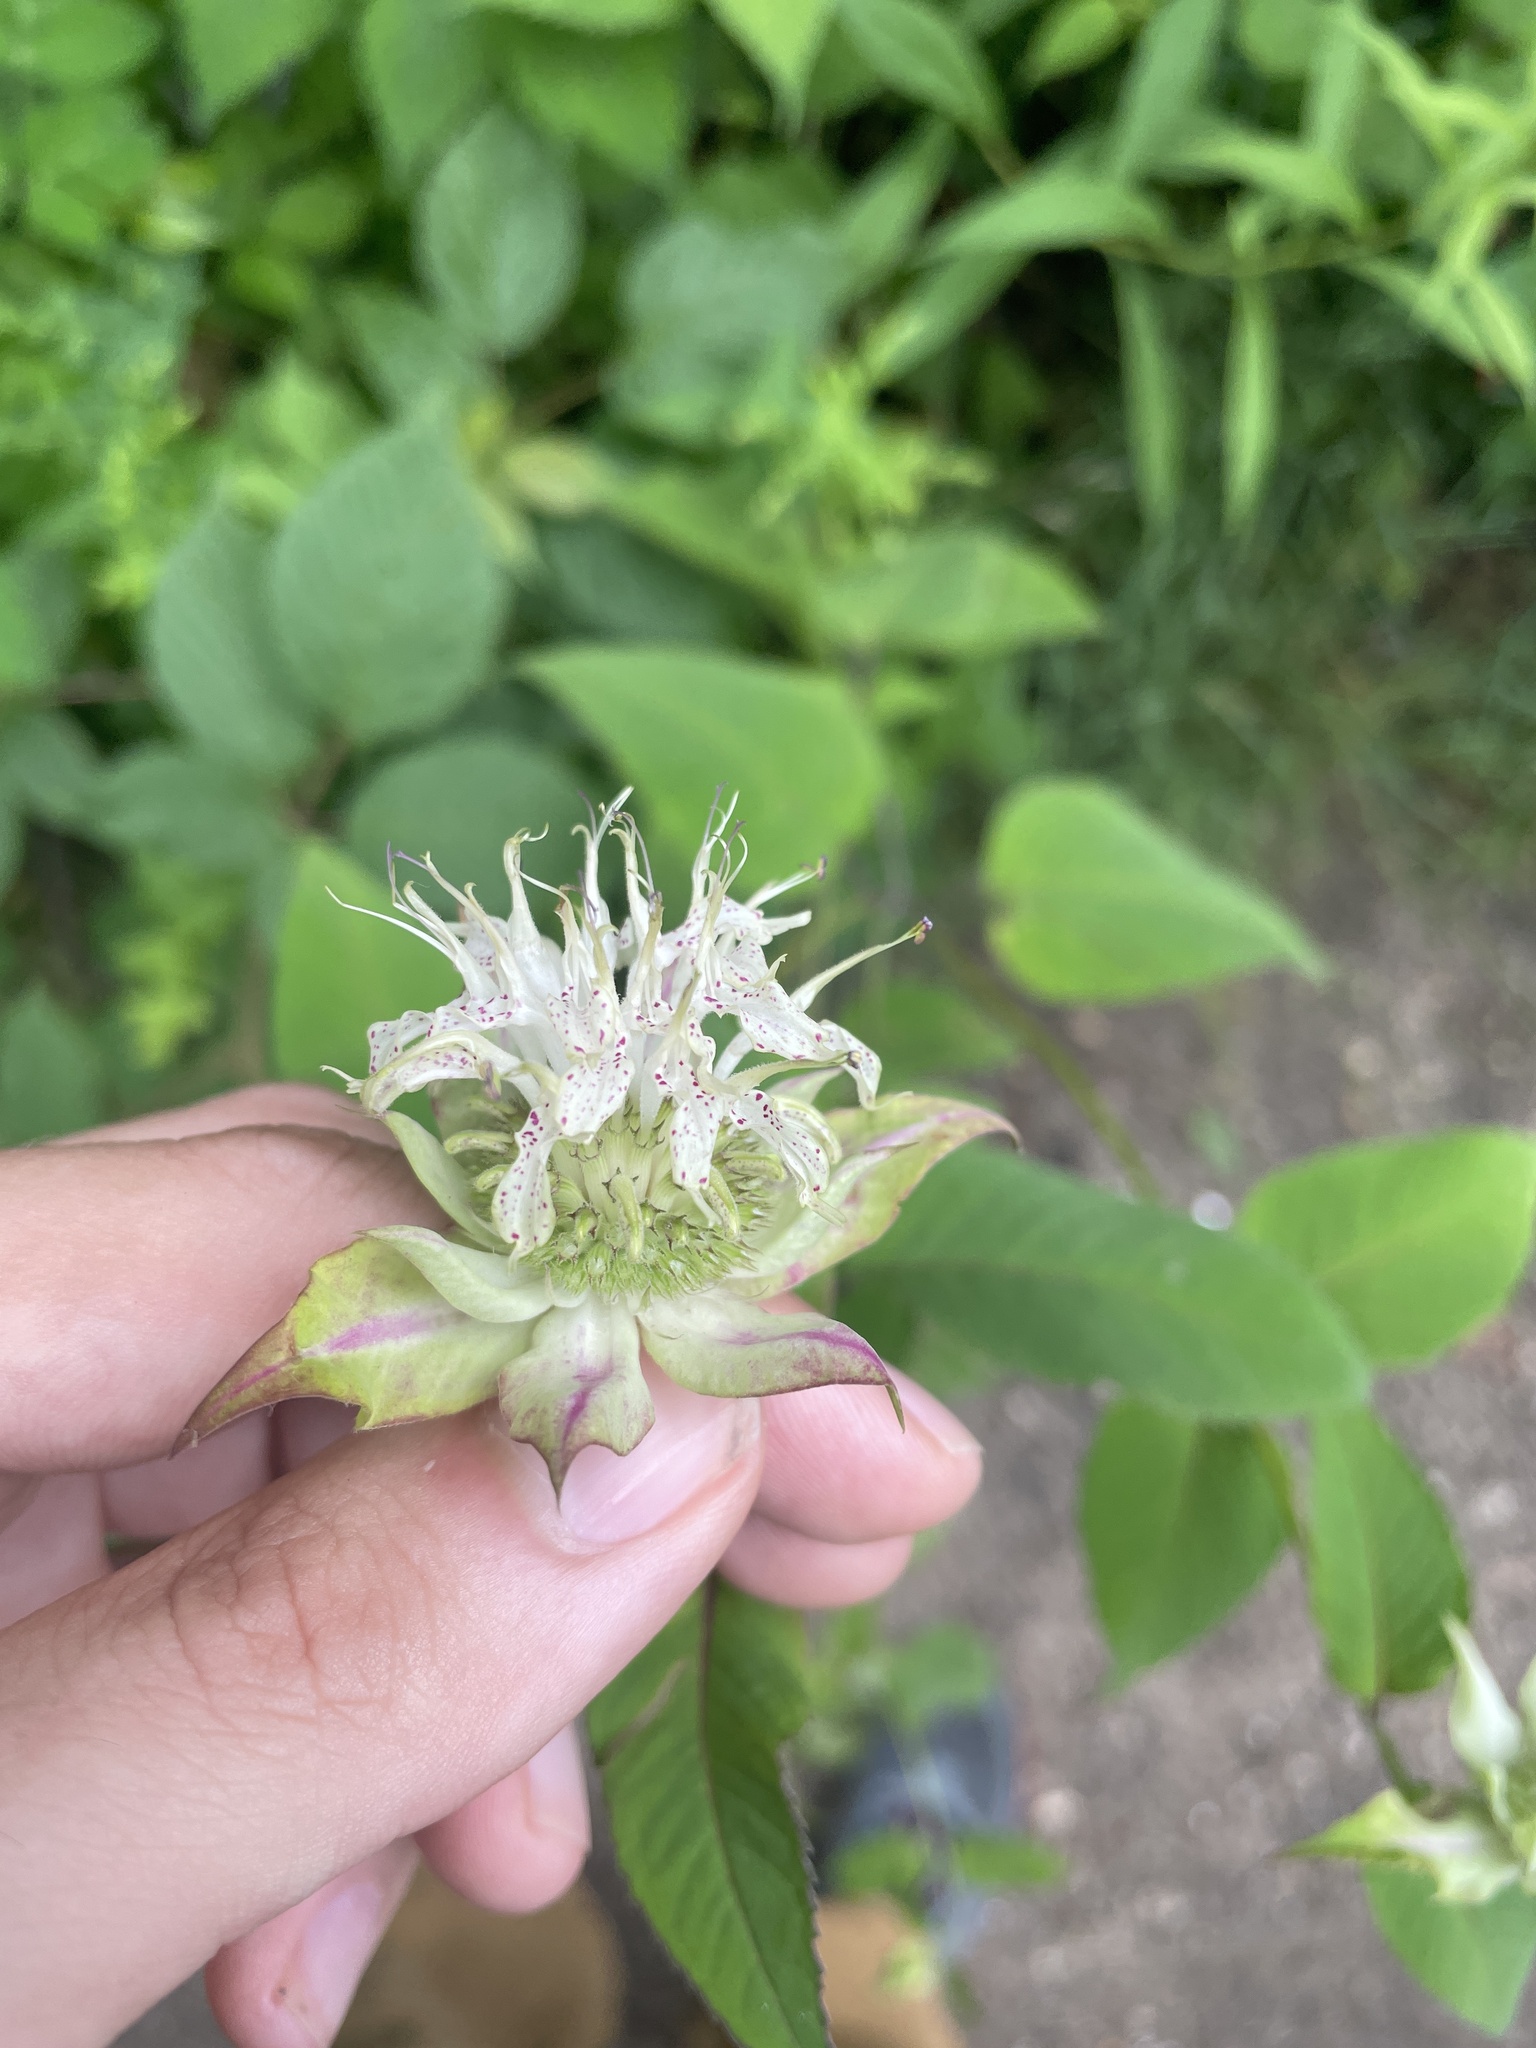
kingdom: Plantae
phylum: Tracheophyta
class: Magnoliopsida
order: Lamiales
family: Lamiaceae
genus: Monarda
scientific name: Monarda clinopodia
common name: Basil beebalm
